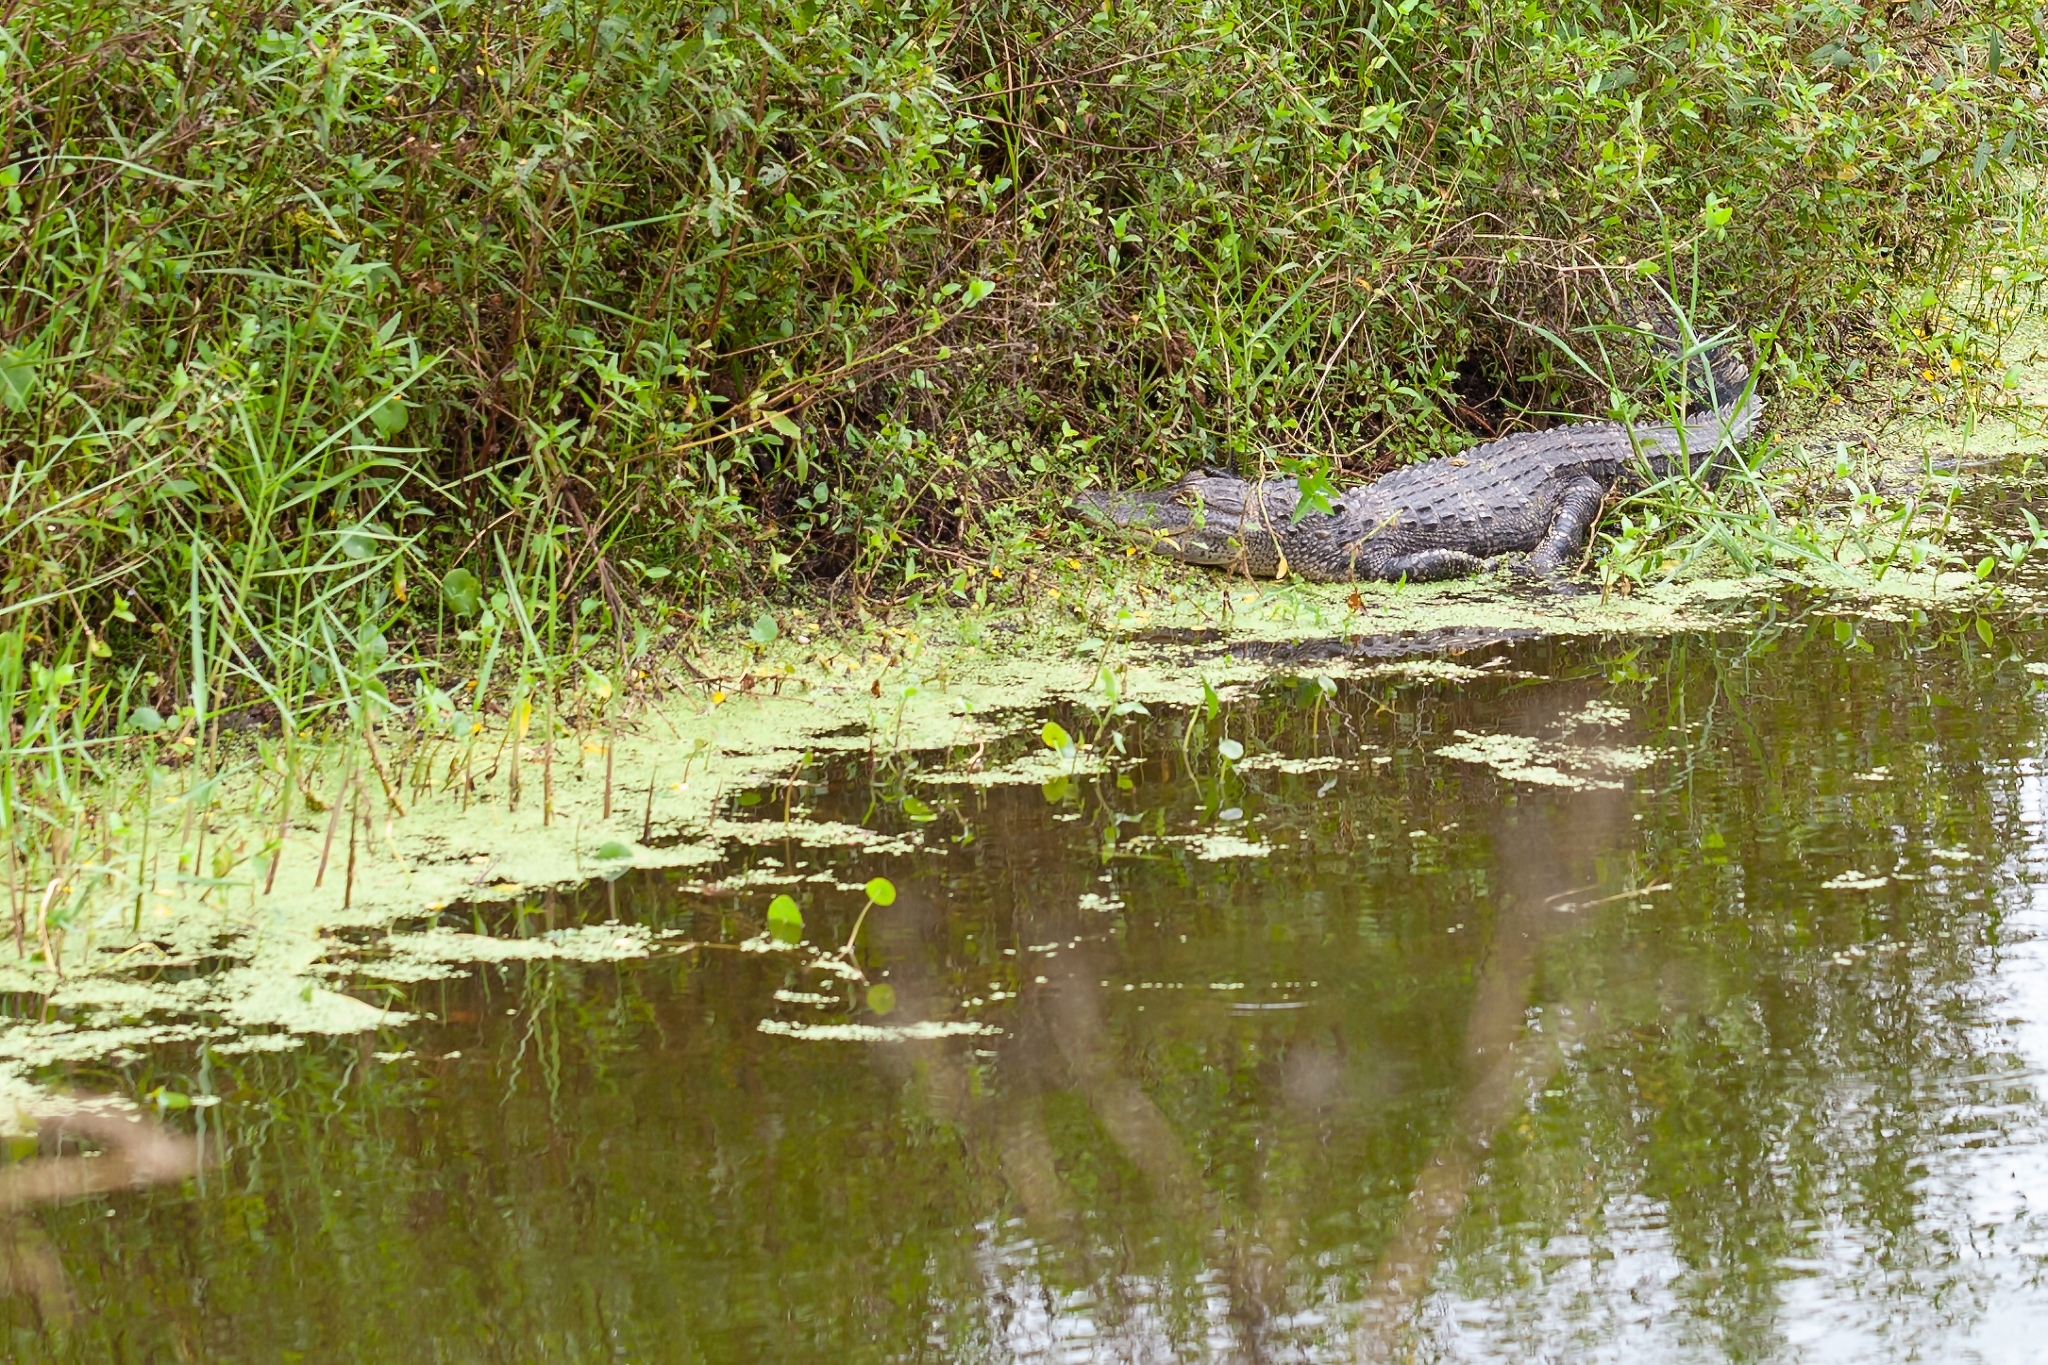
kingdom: Animalia
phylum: Chordata
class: Crocodylia
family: Alligatoridae
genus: Alligator
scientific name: Alligator mississippiensis
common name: American alligator
